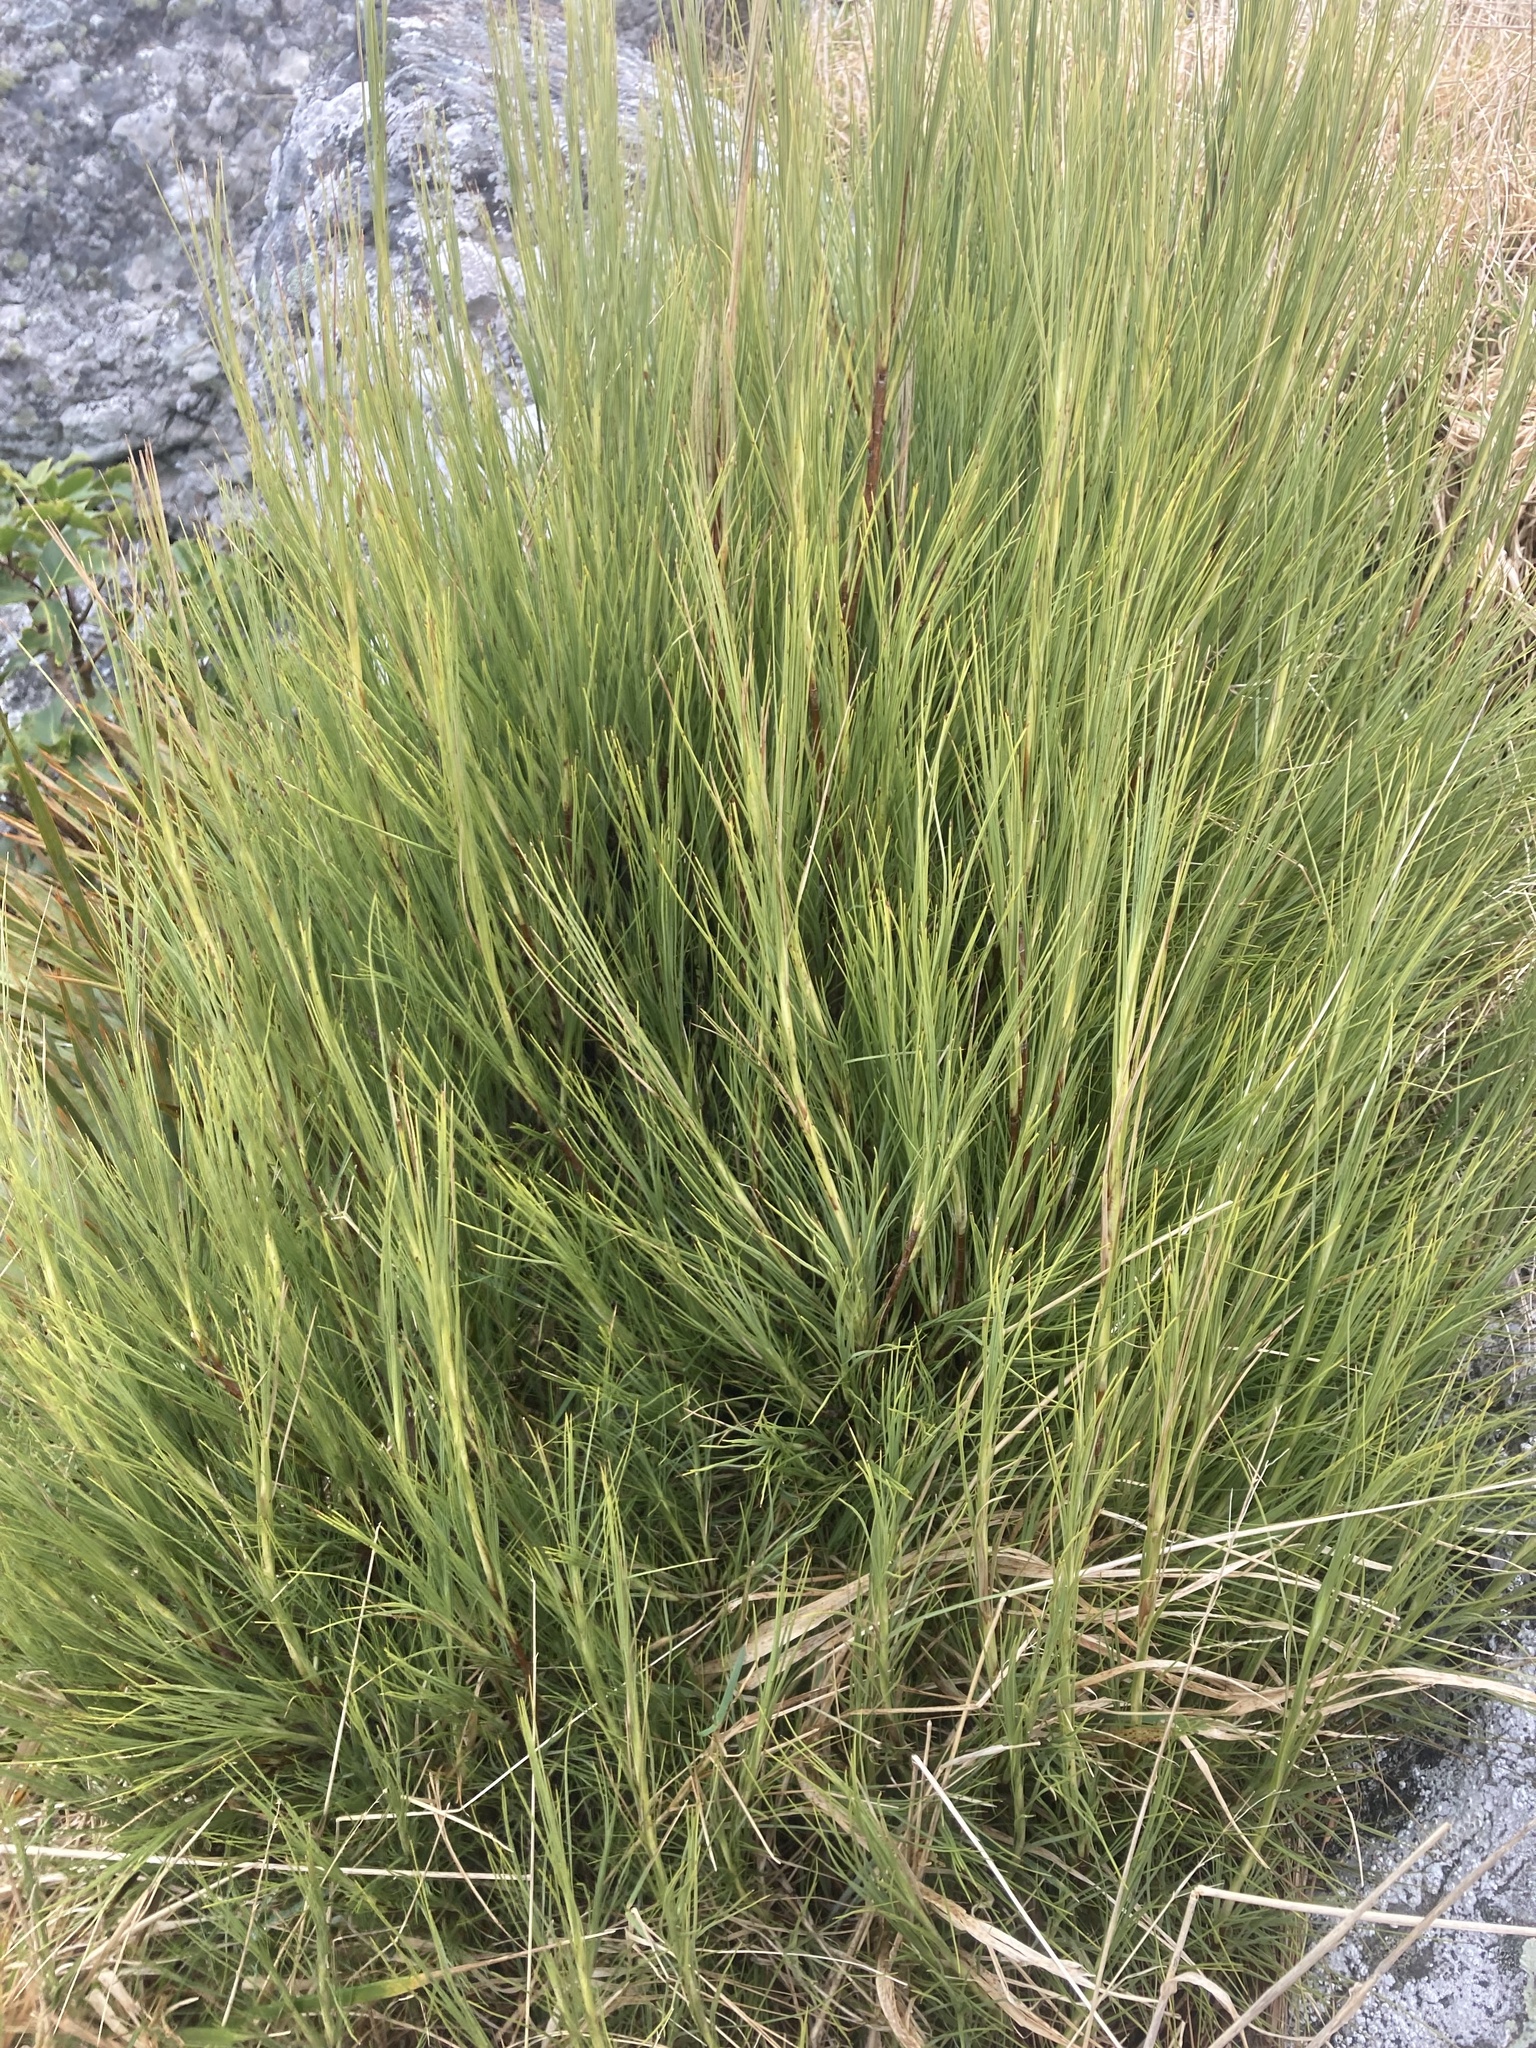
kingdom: Plantae
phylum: Tracheophyta
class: Magnoliopsida
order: Ericales
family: Ericaceae
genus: Dracophyllum
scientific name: Dracophyllum acerosum
